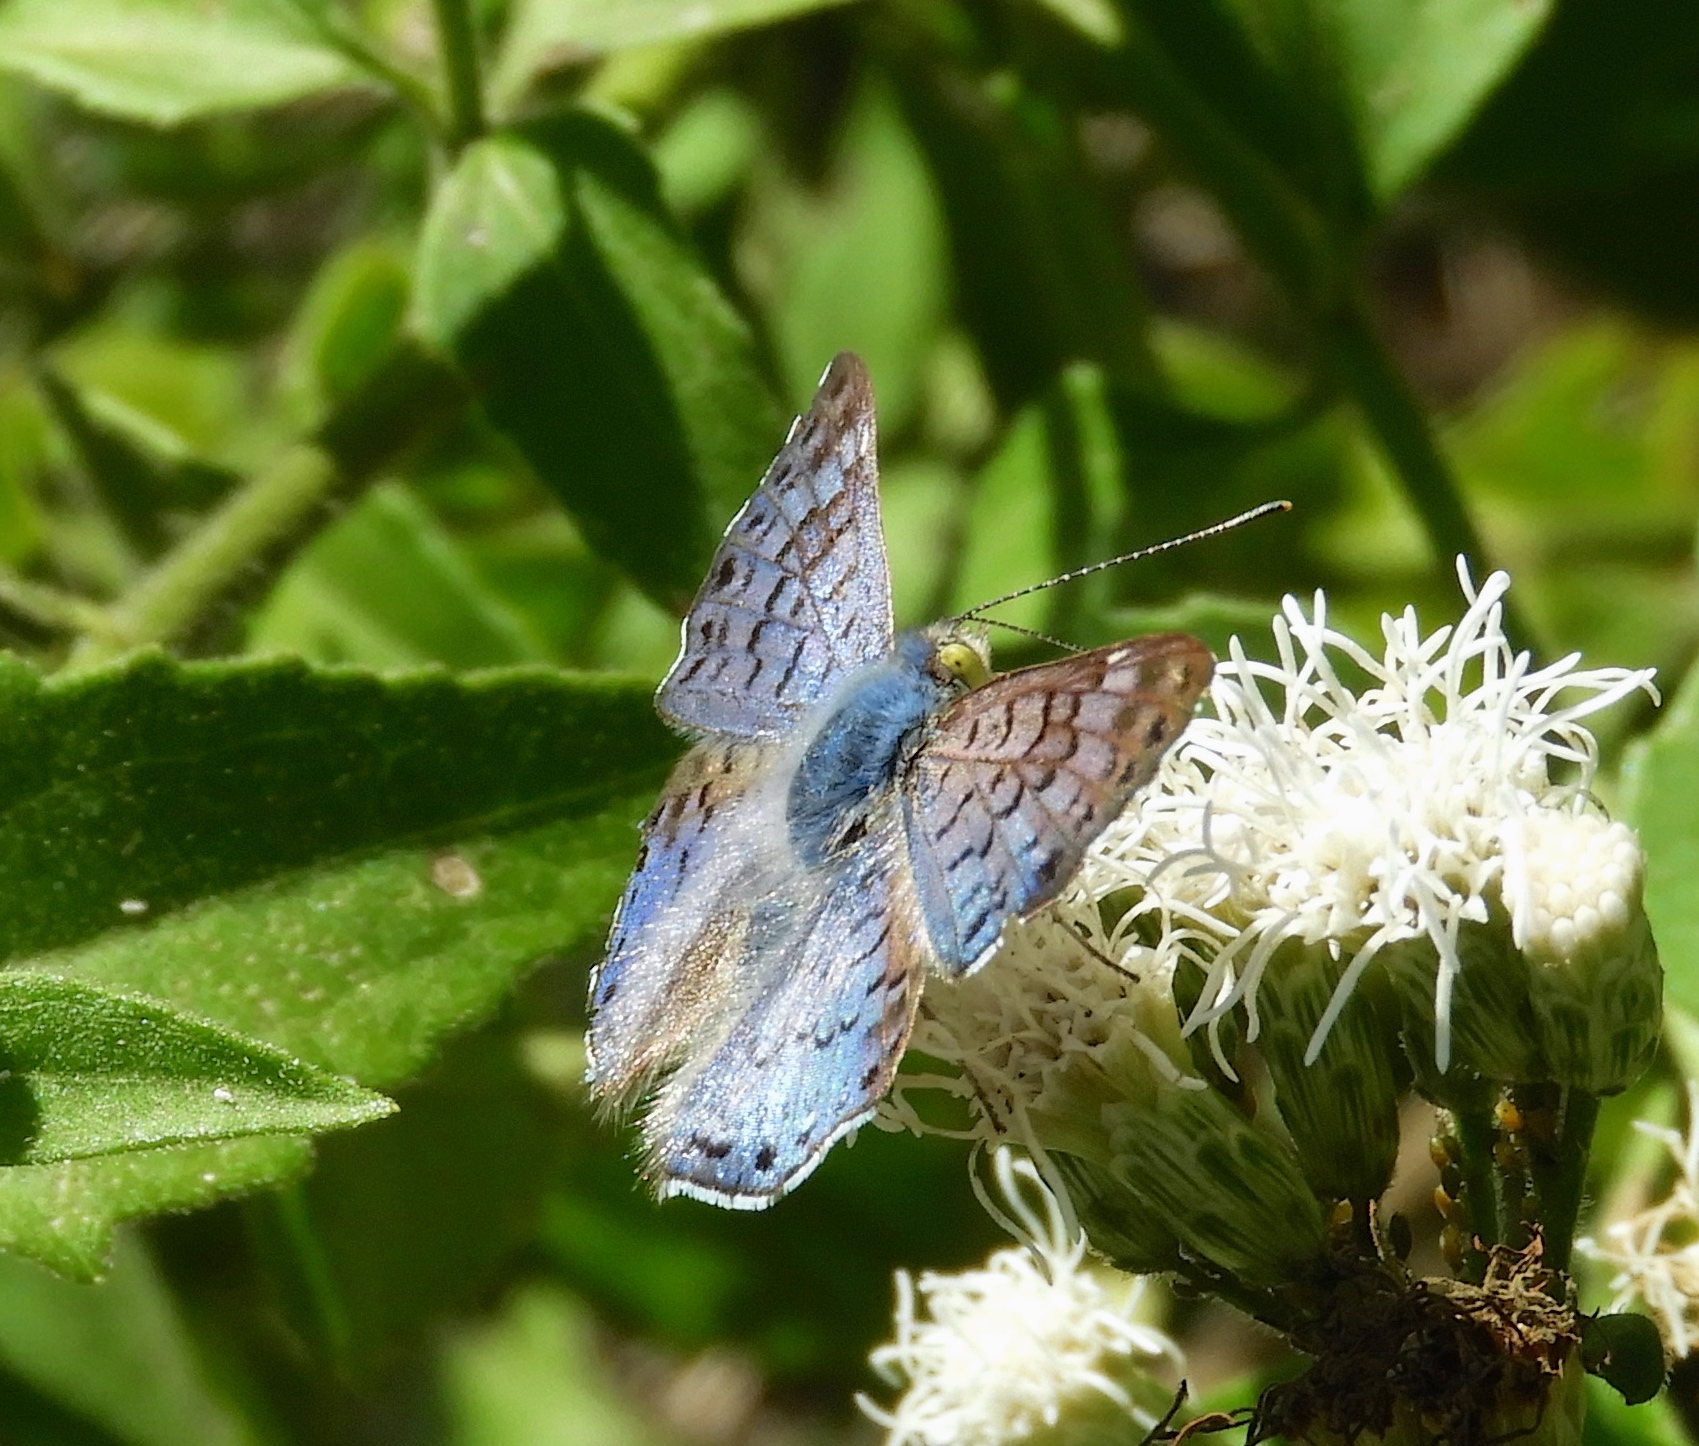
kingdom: Animalia
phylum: Arthropoda
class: Insecta
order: Lepidoptera
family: Riodinidae
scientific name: Riodinidae
